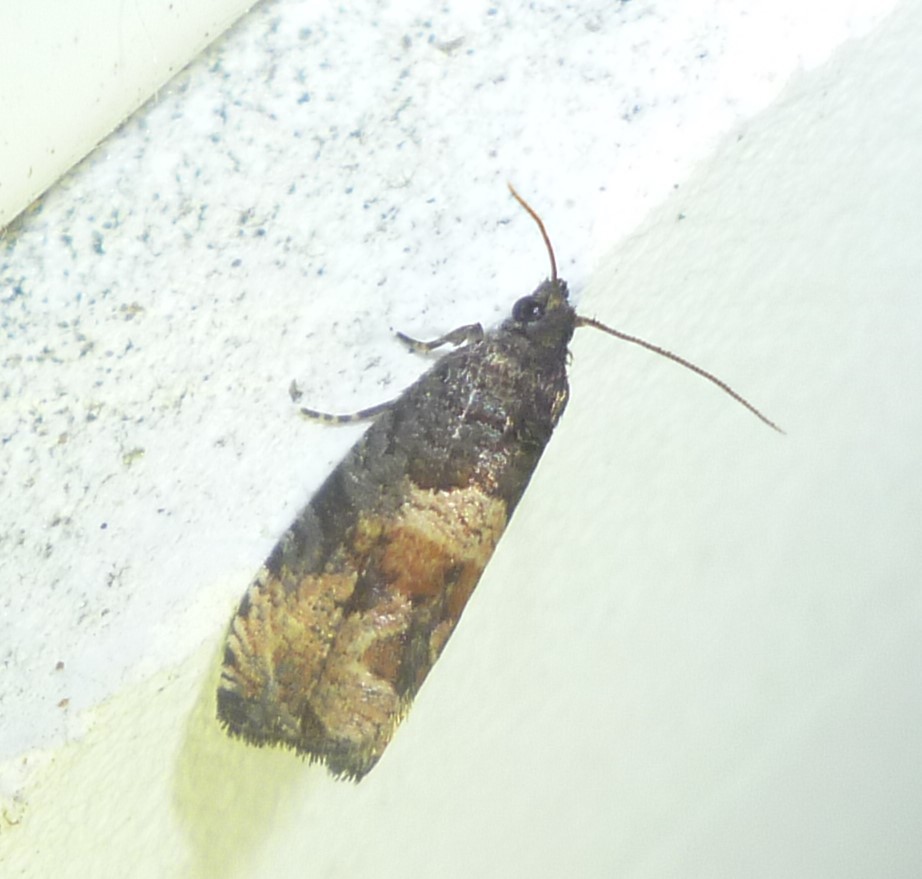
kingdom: Animalia
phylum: Arthropoda
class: Insecta
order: Lepidoptera
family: Tortricidae
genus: Hulda
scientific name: Hulda impudens
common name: Impudent hulda moth
